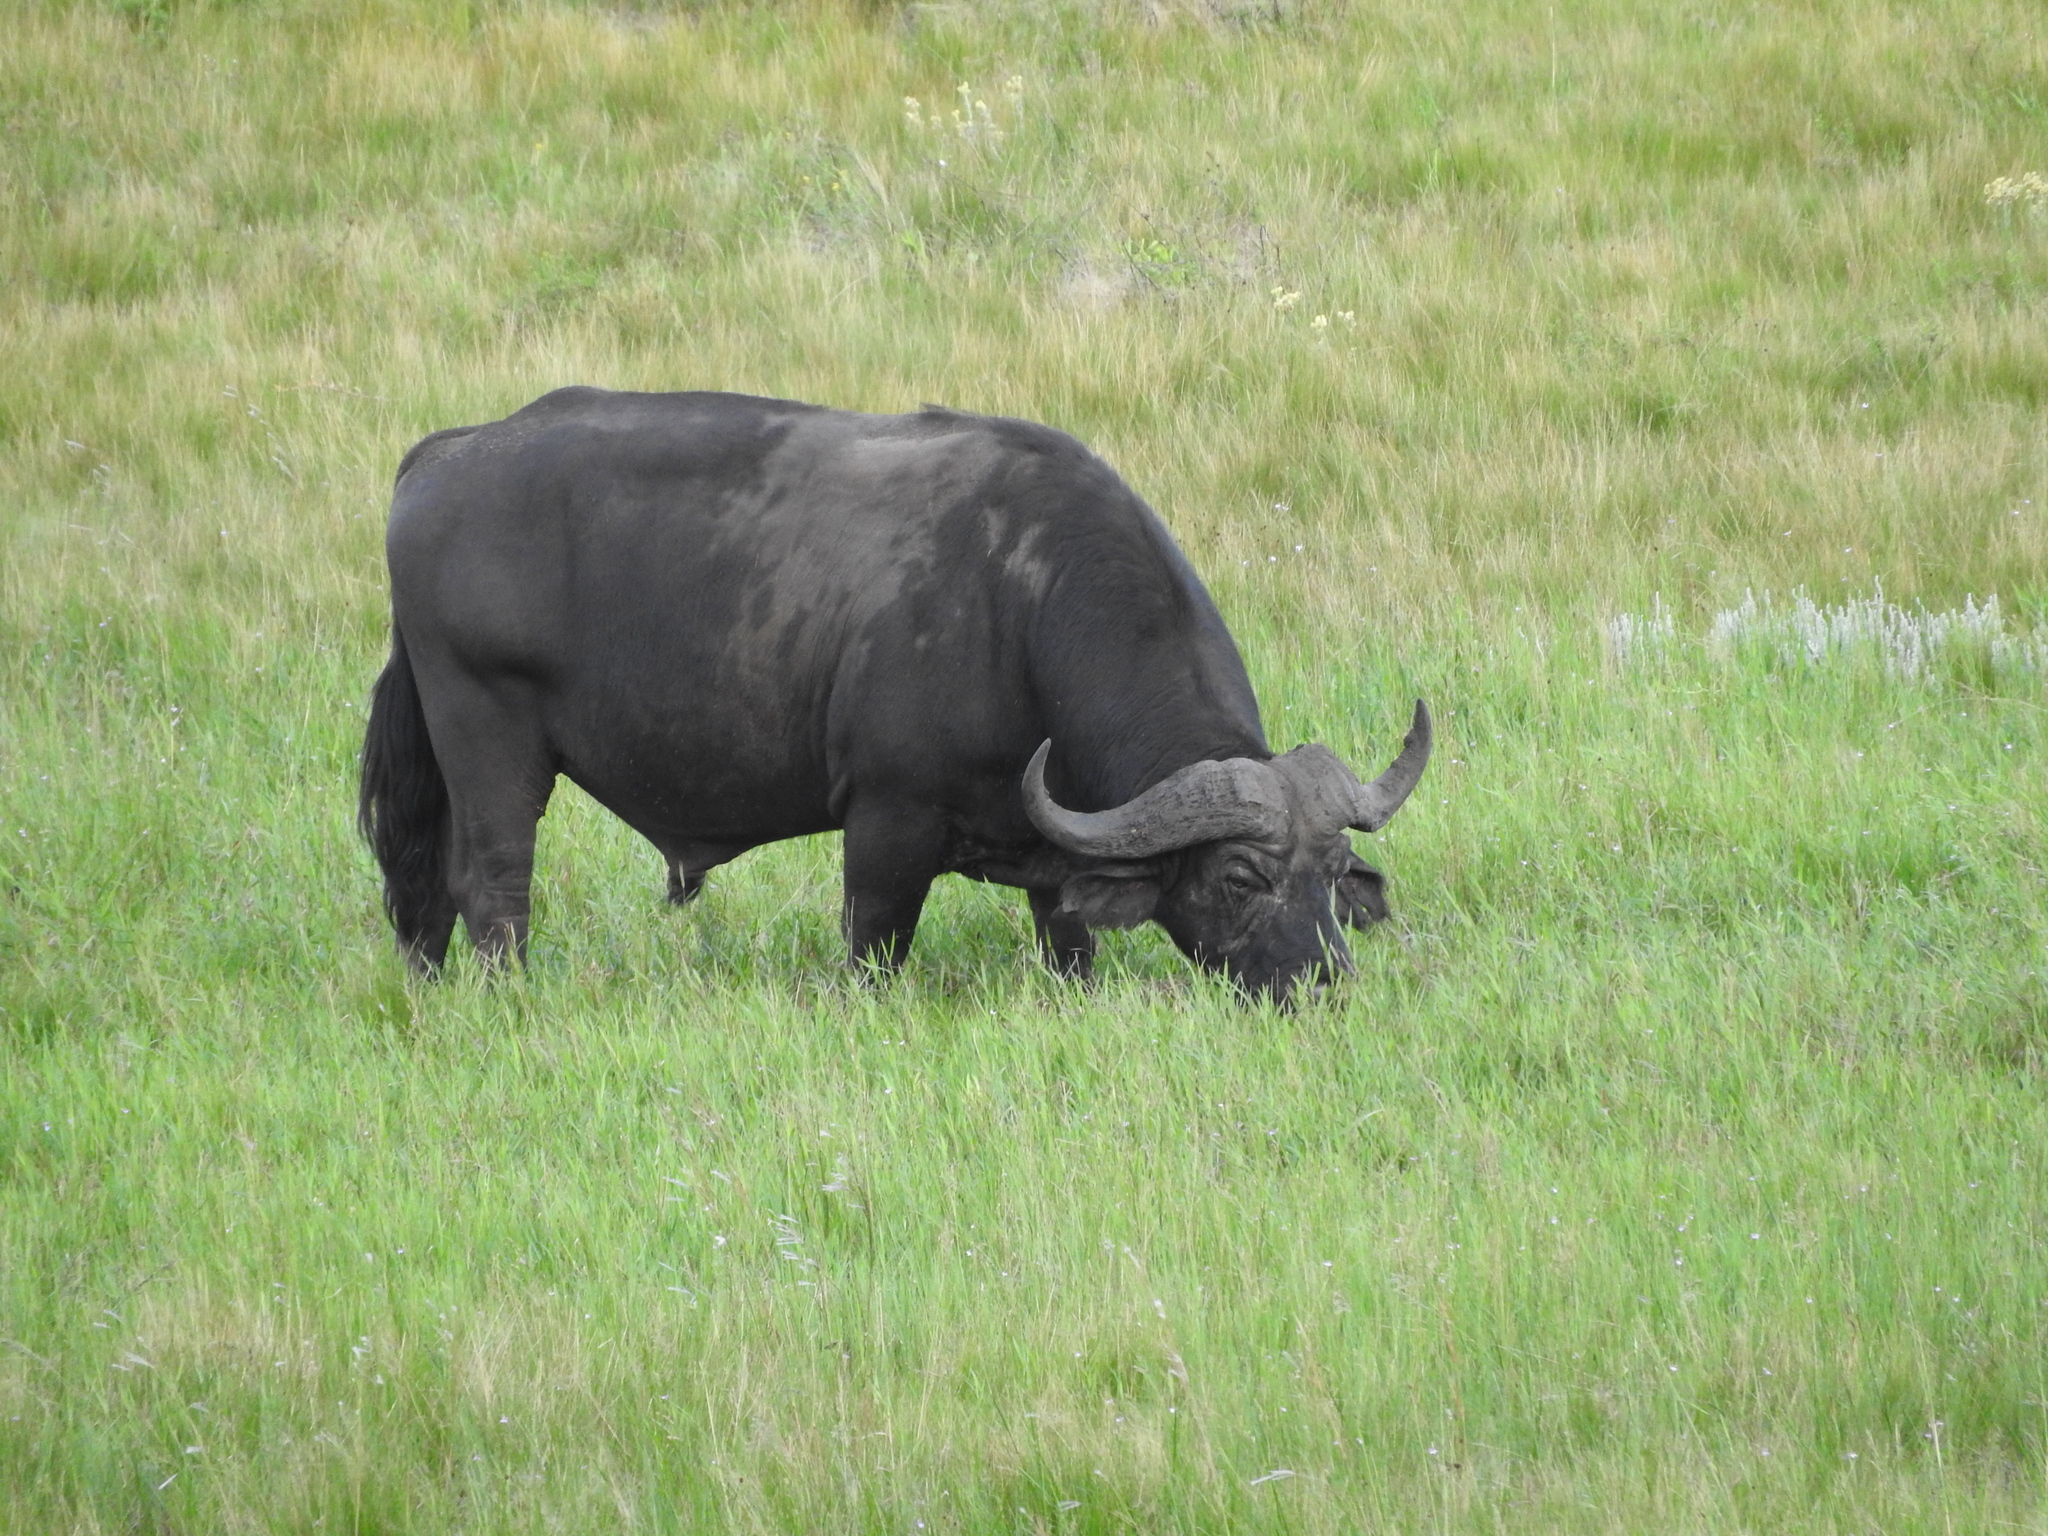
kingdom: Animalia
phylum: Chordata
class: Mammalia
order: Artiodactyla
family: Bovidae
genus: Syncerus
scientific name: Syncerus caffer
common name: African buffalo
